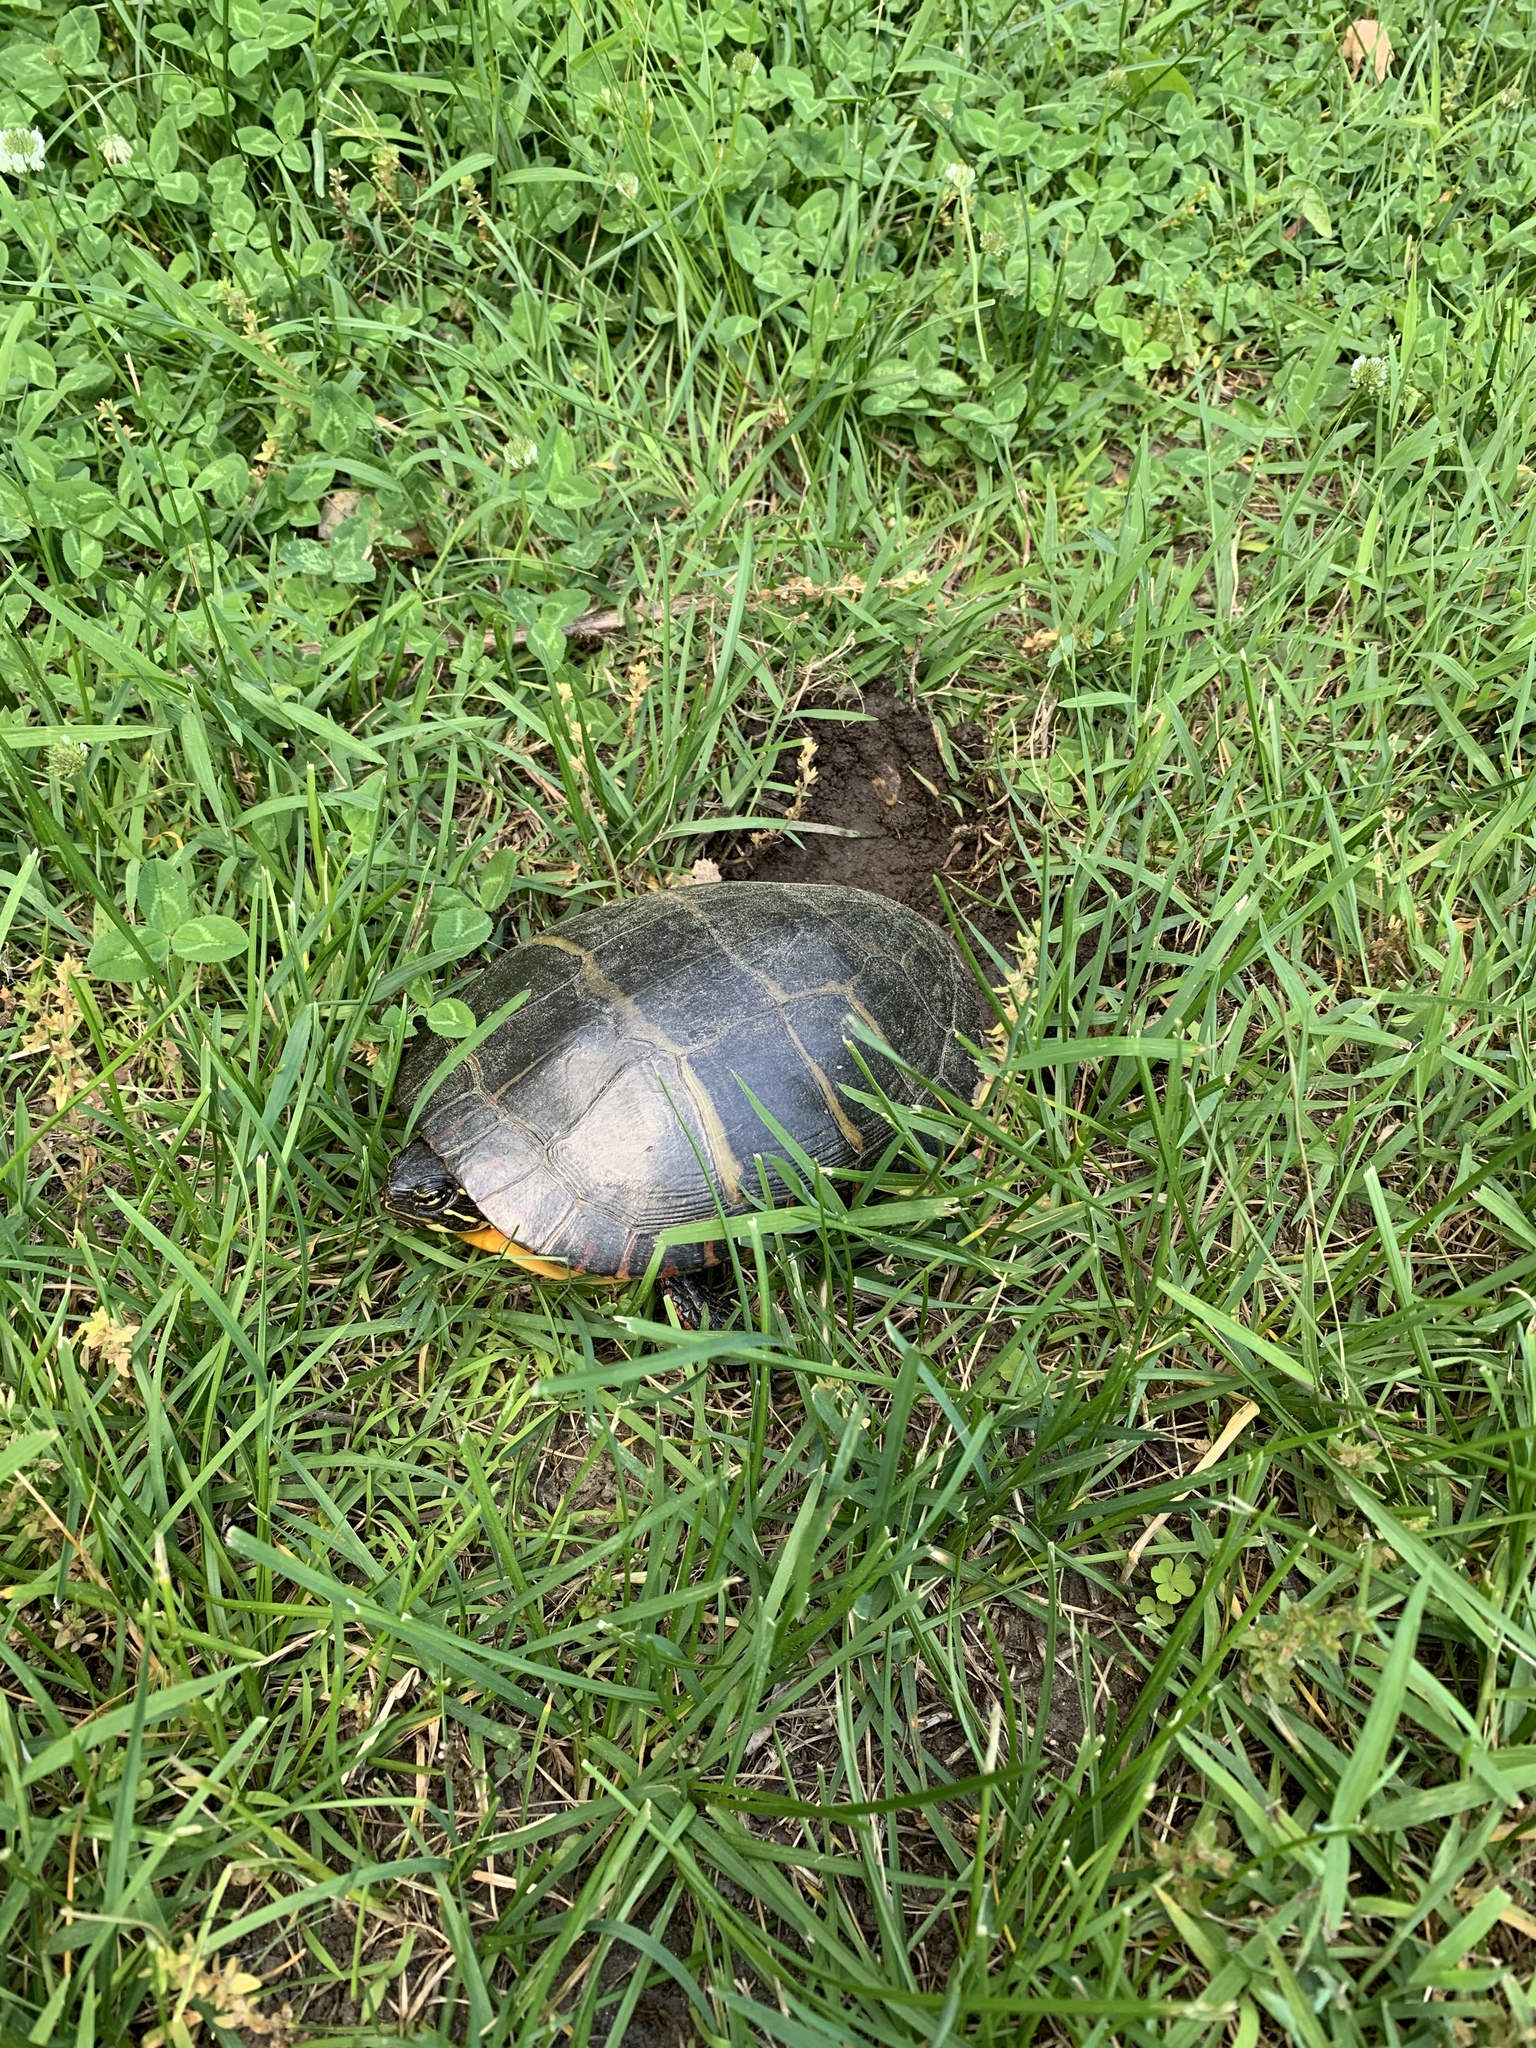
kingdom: Animalia
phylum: Chordata
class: Testudines
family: Emydidae
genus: Chrysemys
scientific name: Chrysemys picta
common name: Painted turtle
